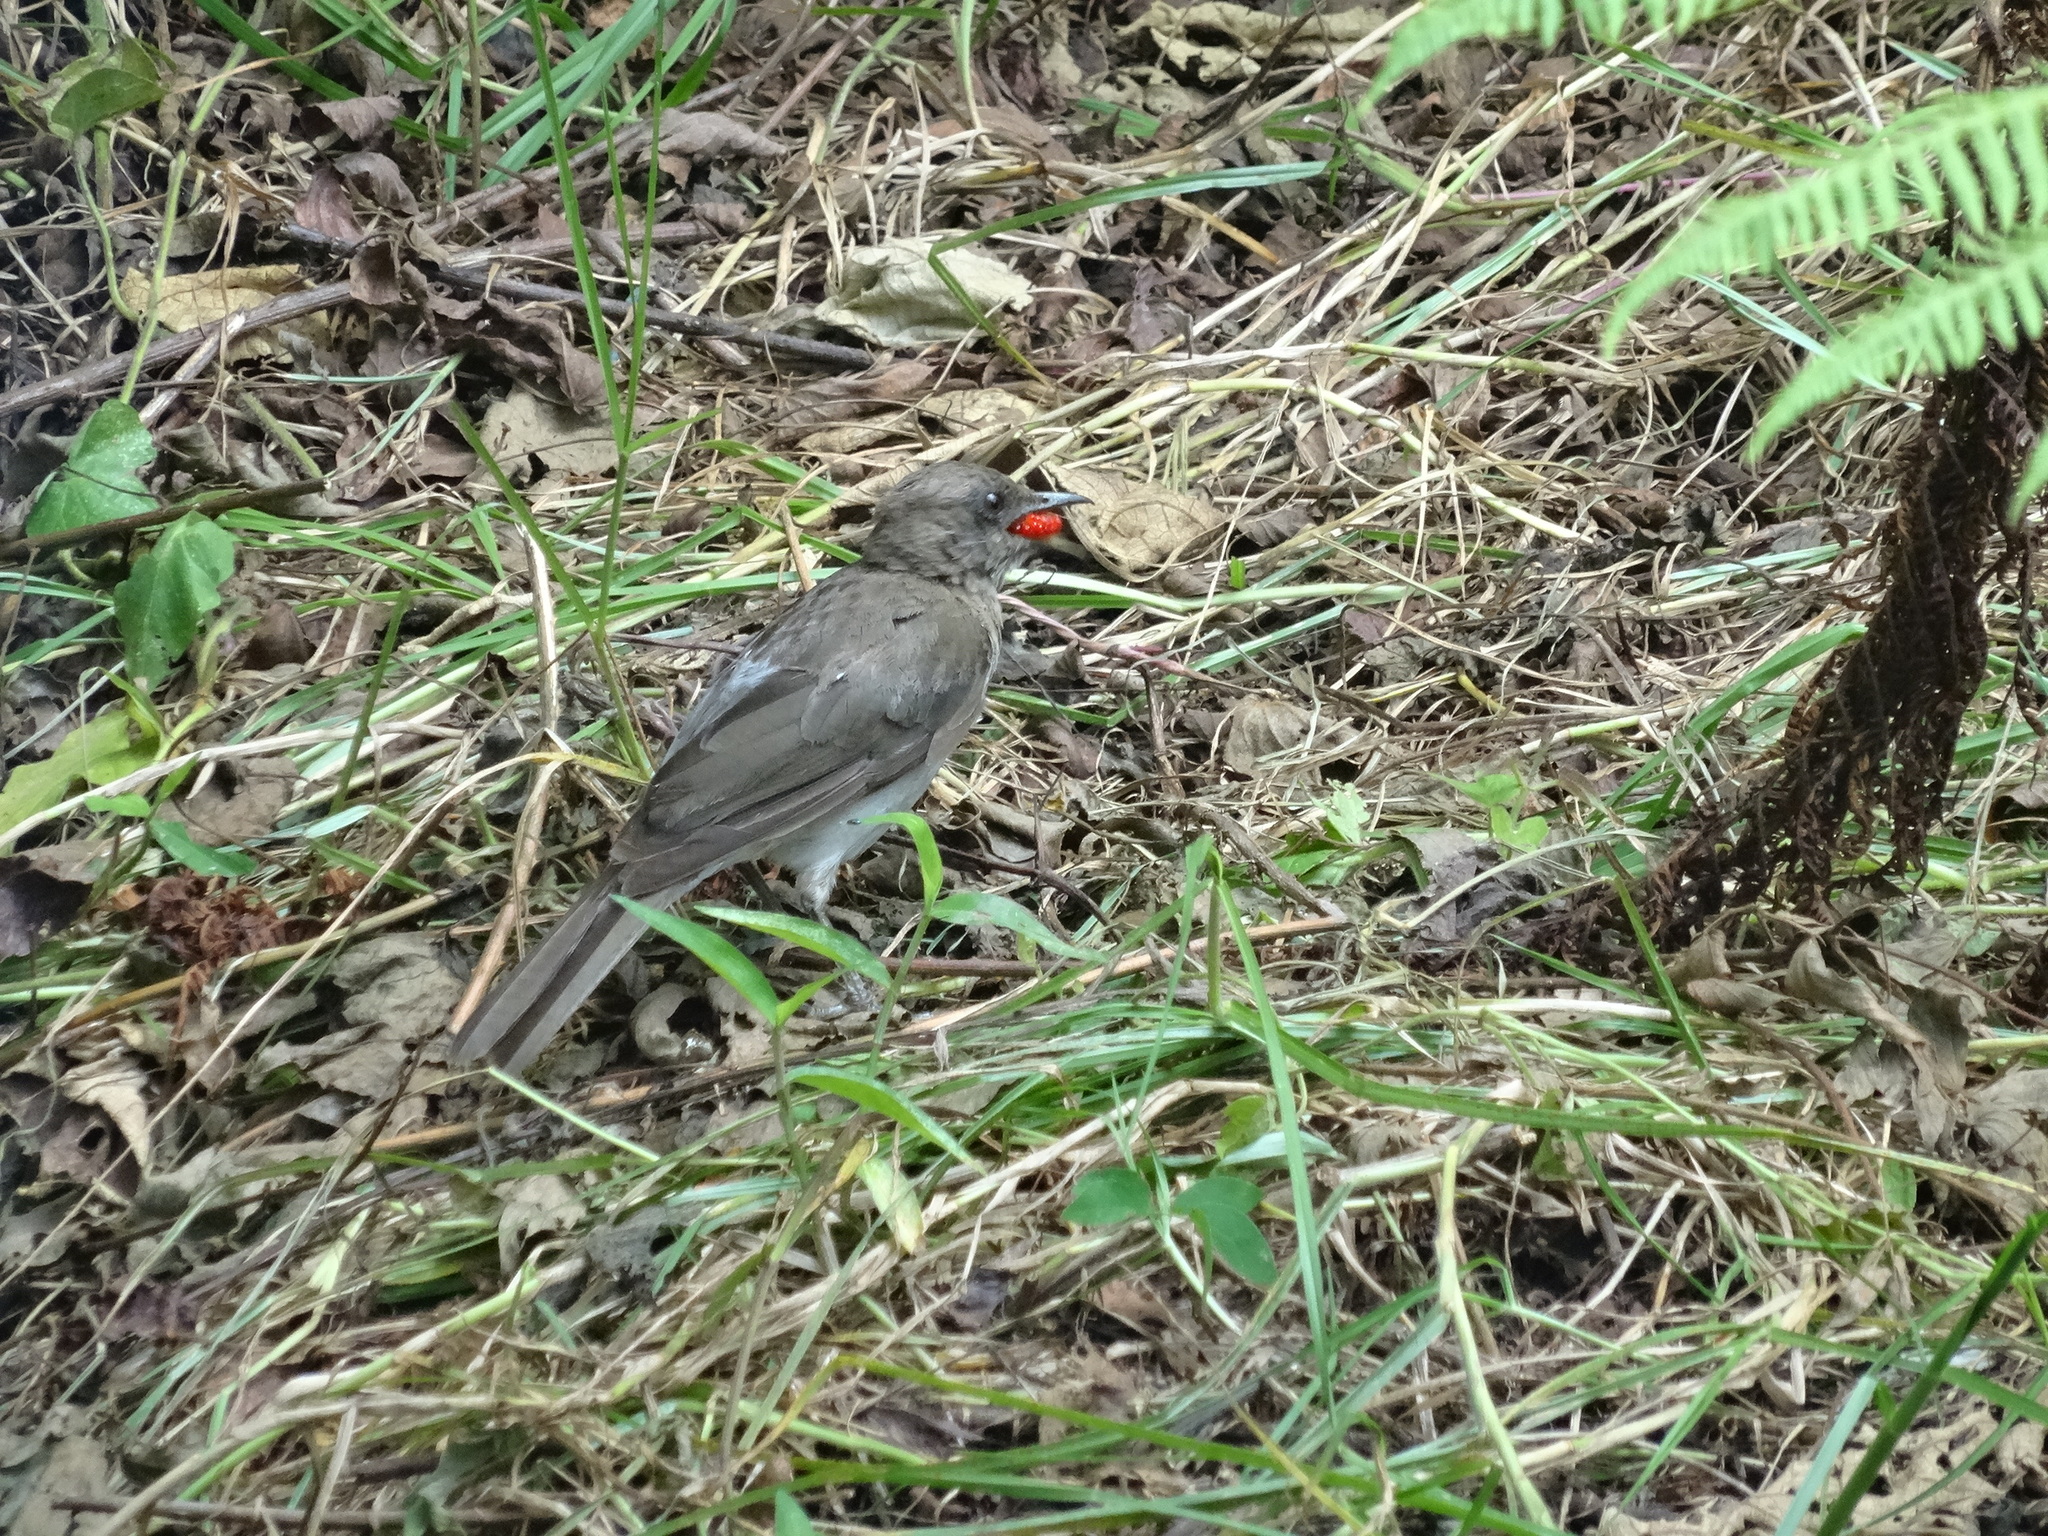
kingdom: Animalia
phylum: Chordata
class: Aves
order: Passeriformes
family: Turdidae
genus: Turdus
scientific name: Turdus ignobilis
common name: Black-billed thrush
